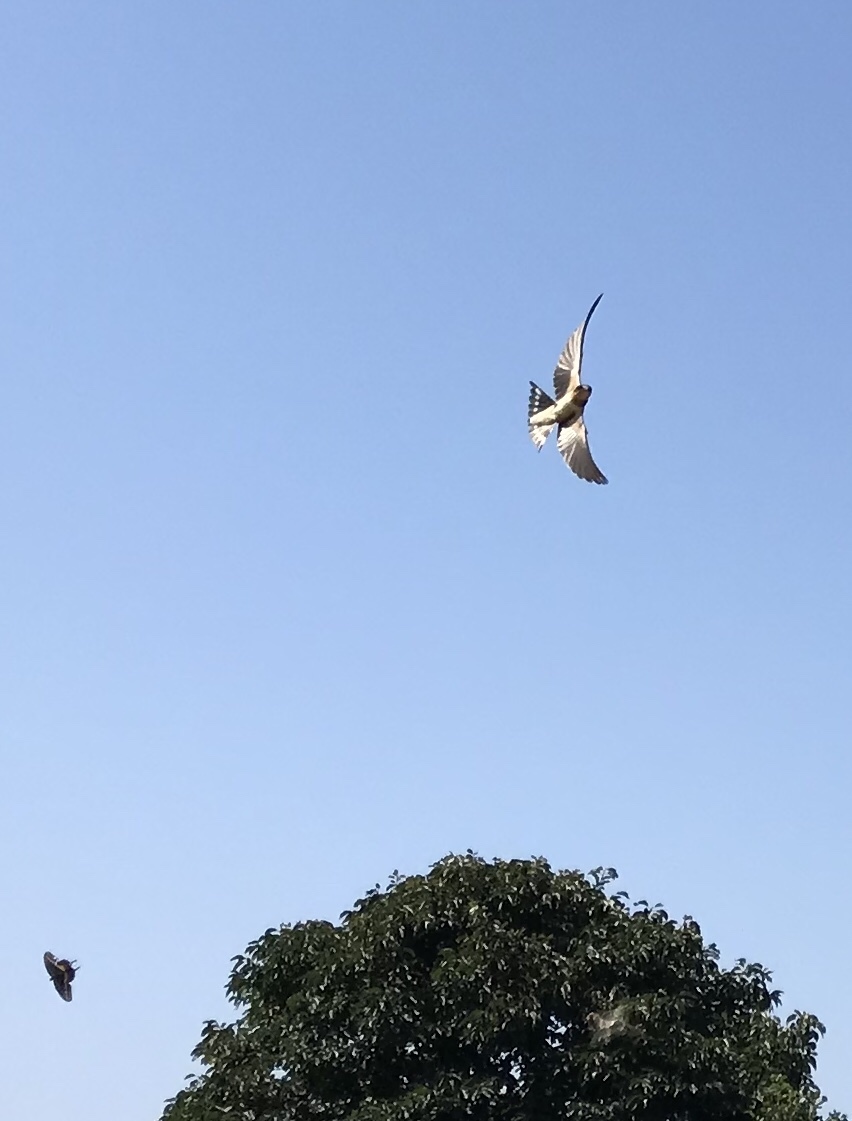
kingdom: Animalia
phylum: Chordata
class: Aves
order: Passeriformes
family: Hirundinidae
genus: Hirundo
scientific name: Hirundo rustica
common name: Barn swallow
